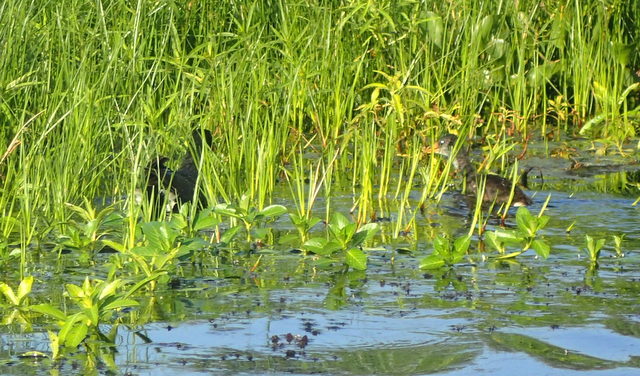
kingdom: Animalia
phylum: Chordata
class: Aves
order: Gruiformes
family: Rallidae
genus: Gallinula
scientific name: Gallinula chloropus
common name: Common moorhen
